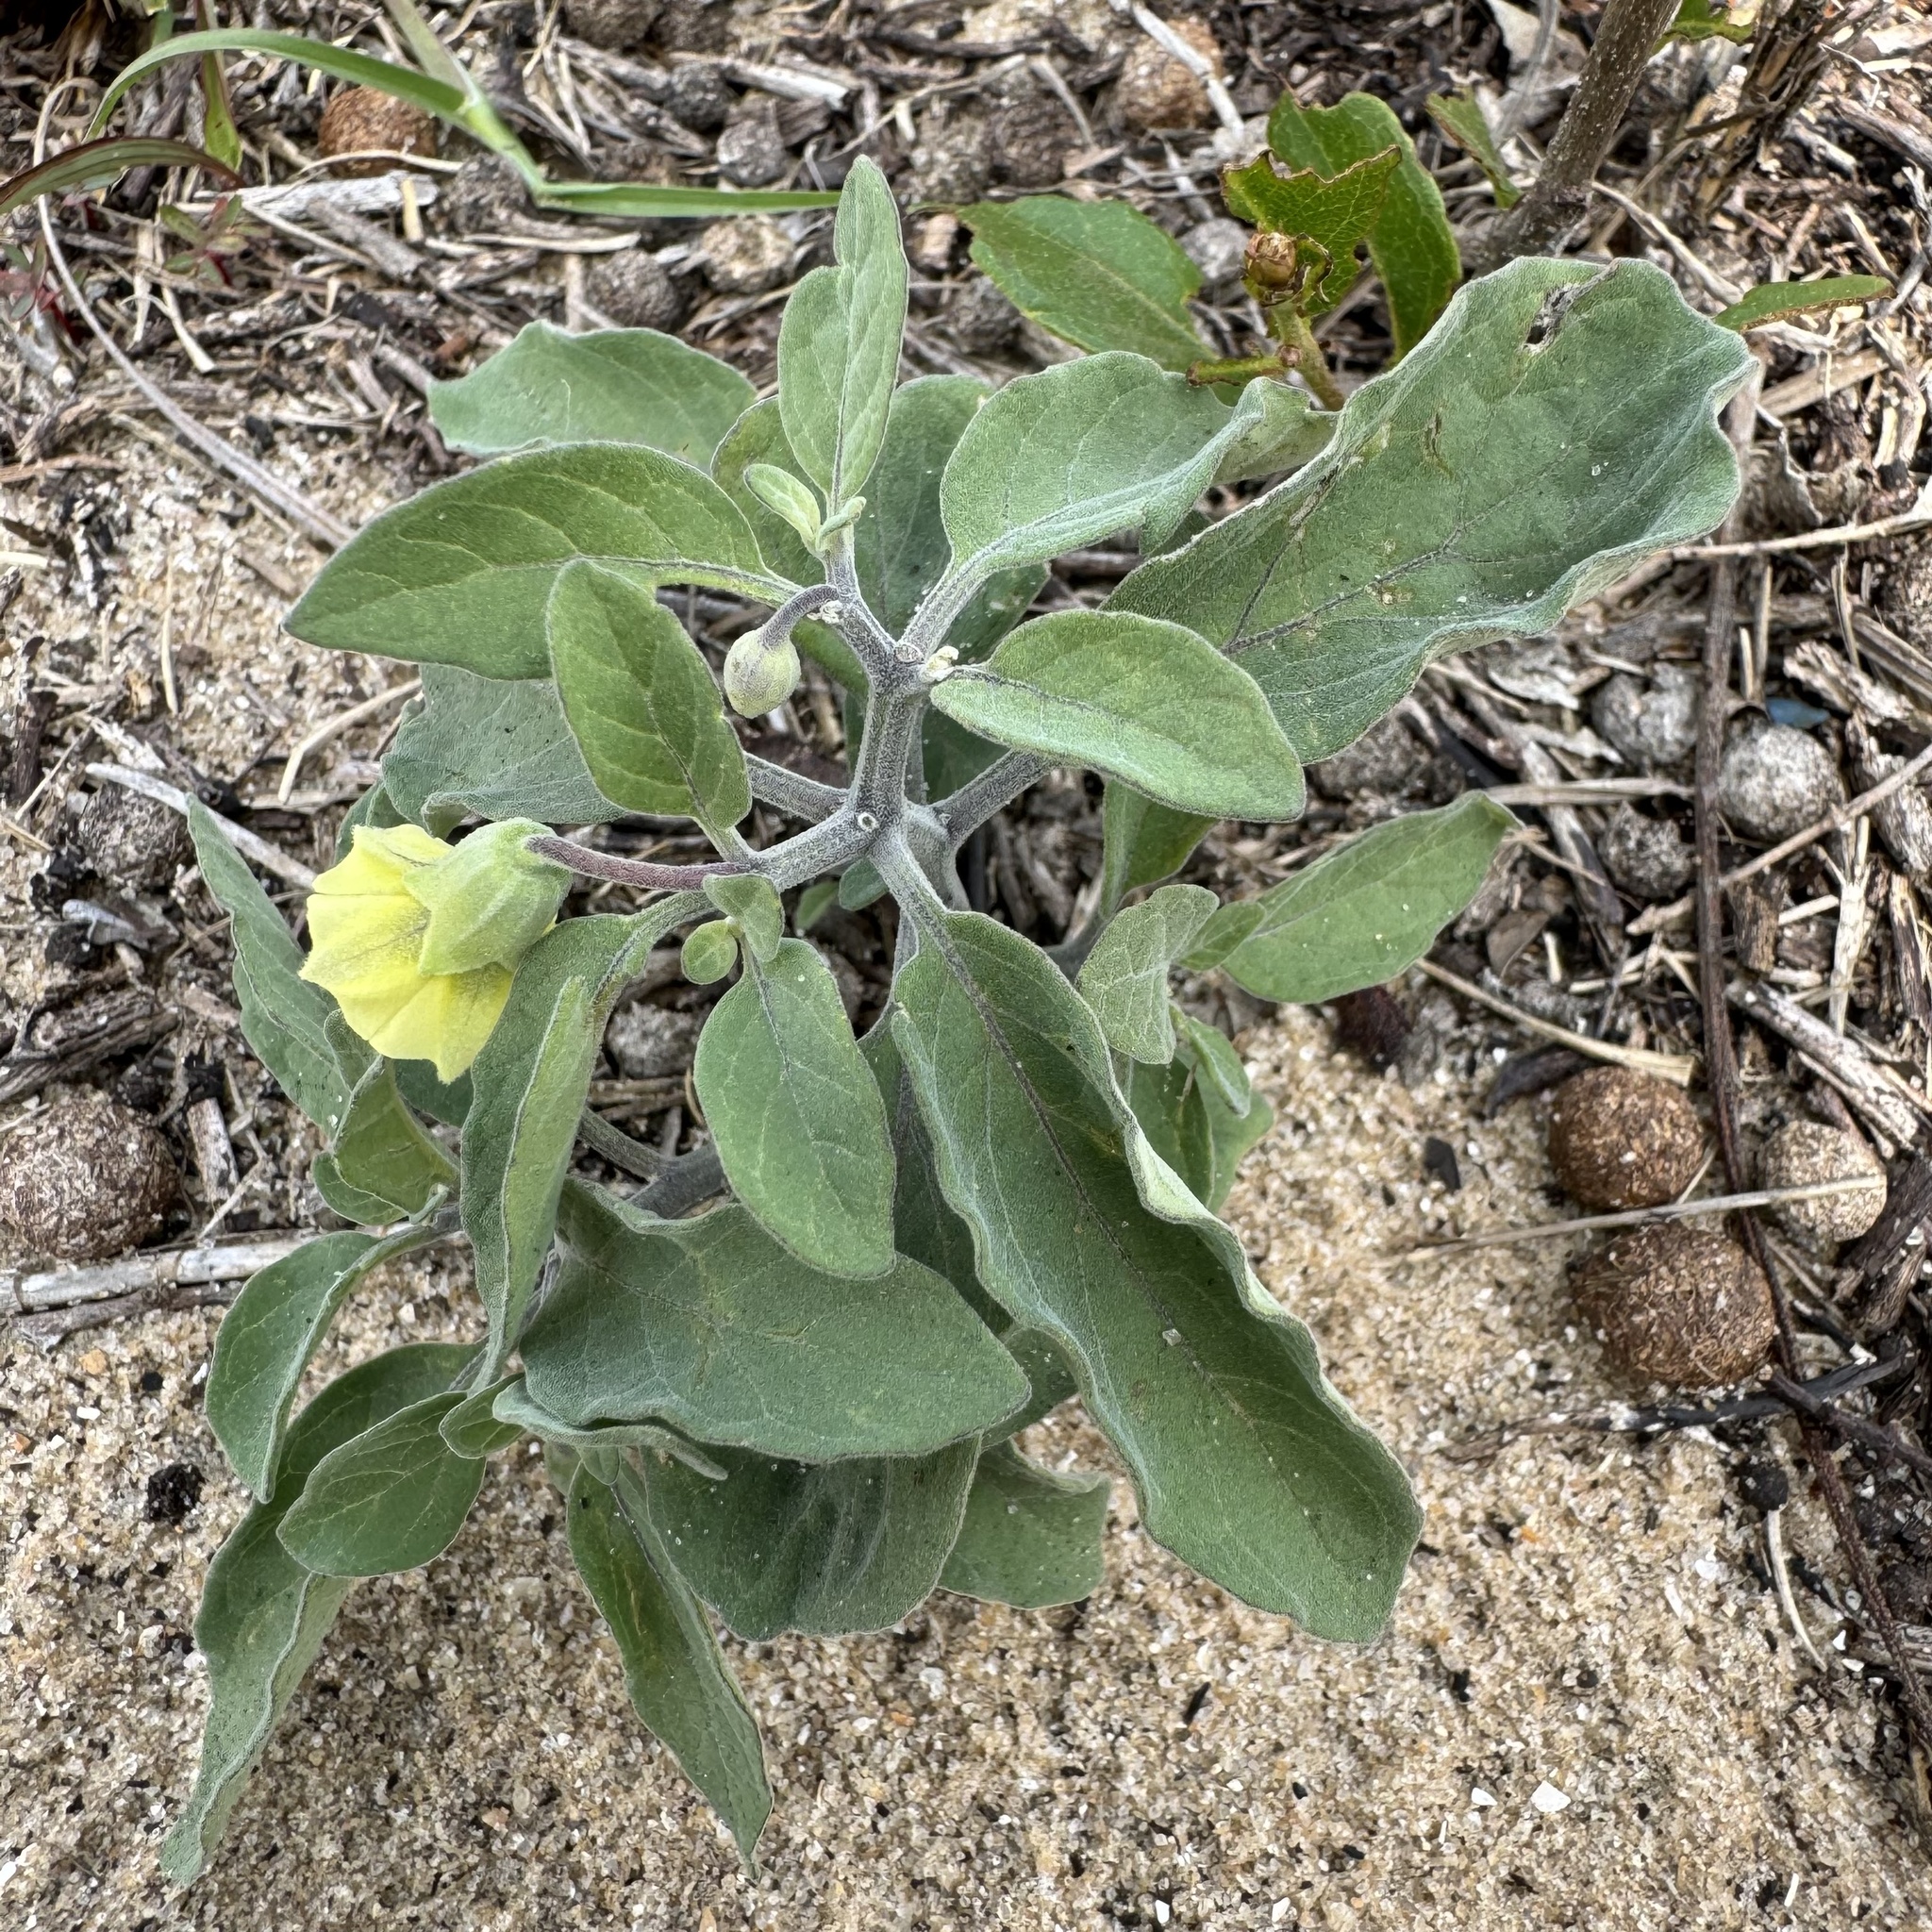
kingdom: Plantae
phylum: Tracheophyta
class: Magnoliopsida
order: Solanales
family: Solanaceae
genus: Physalis
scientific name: Physalis walteri
